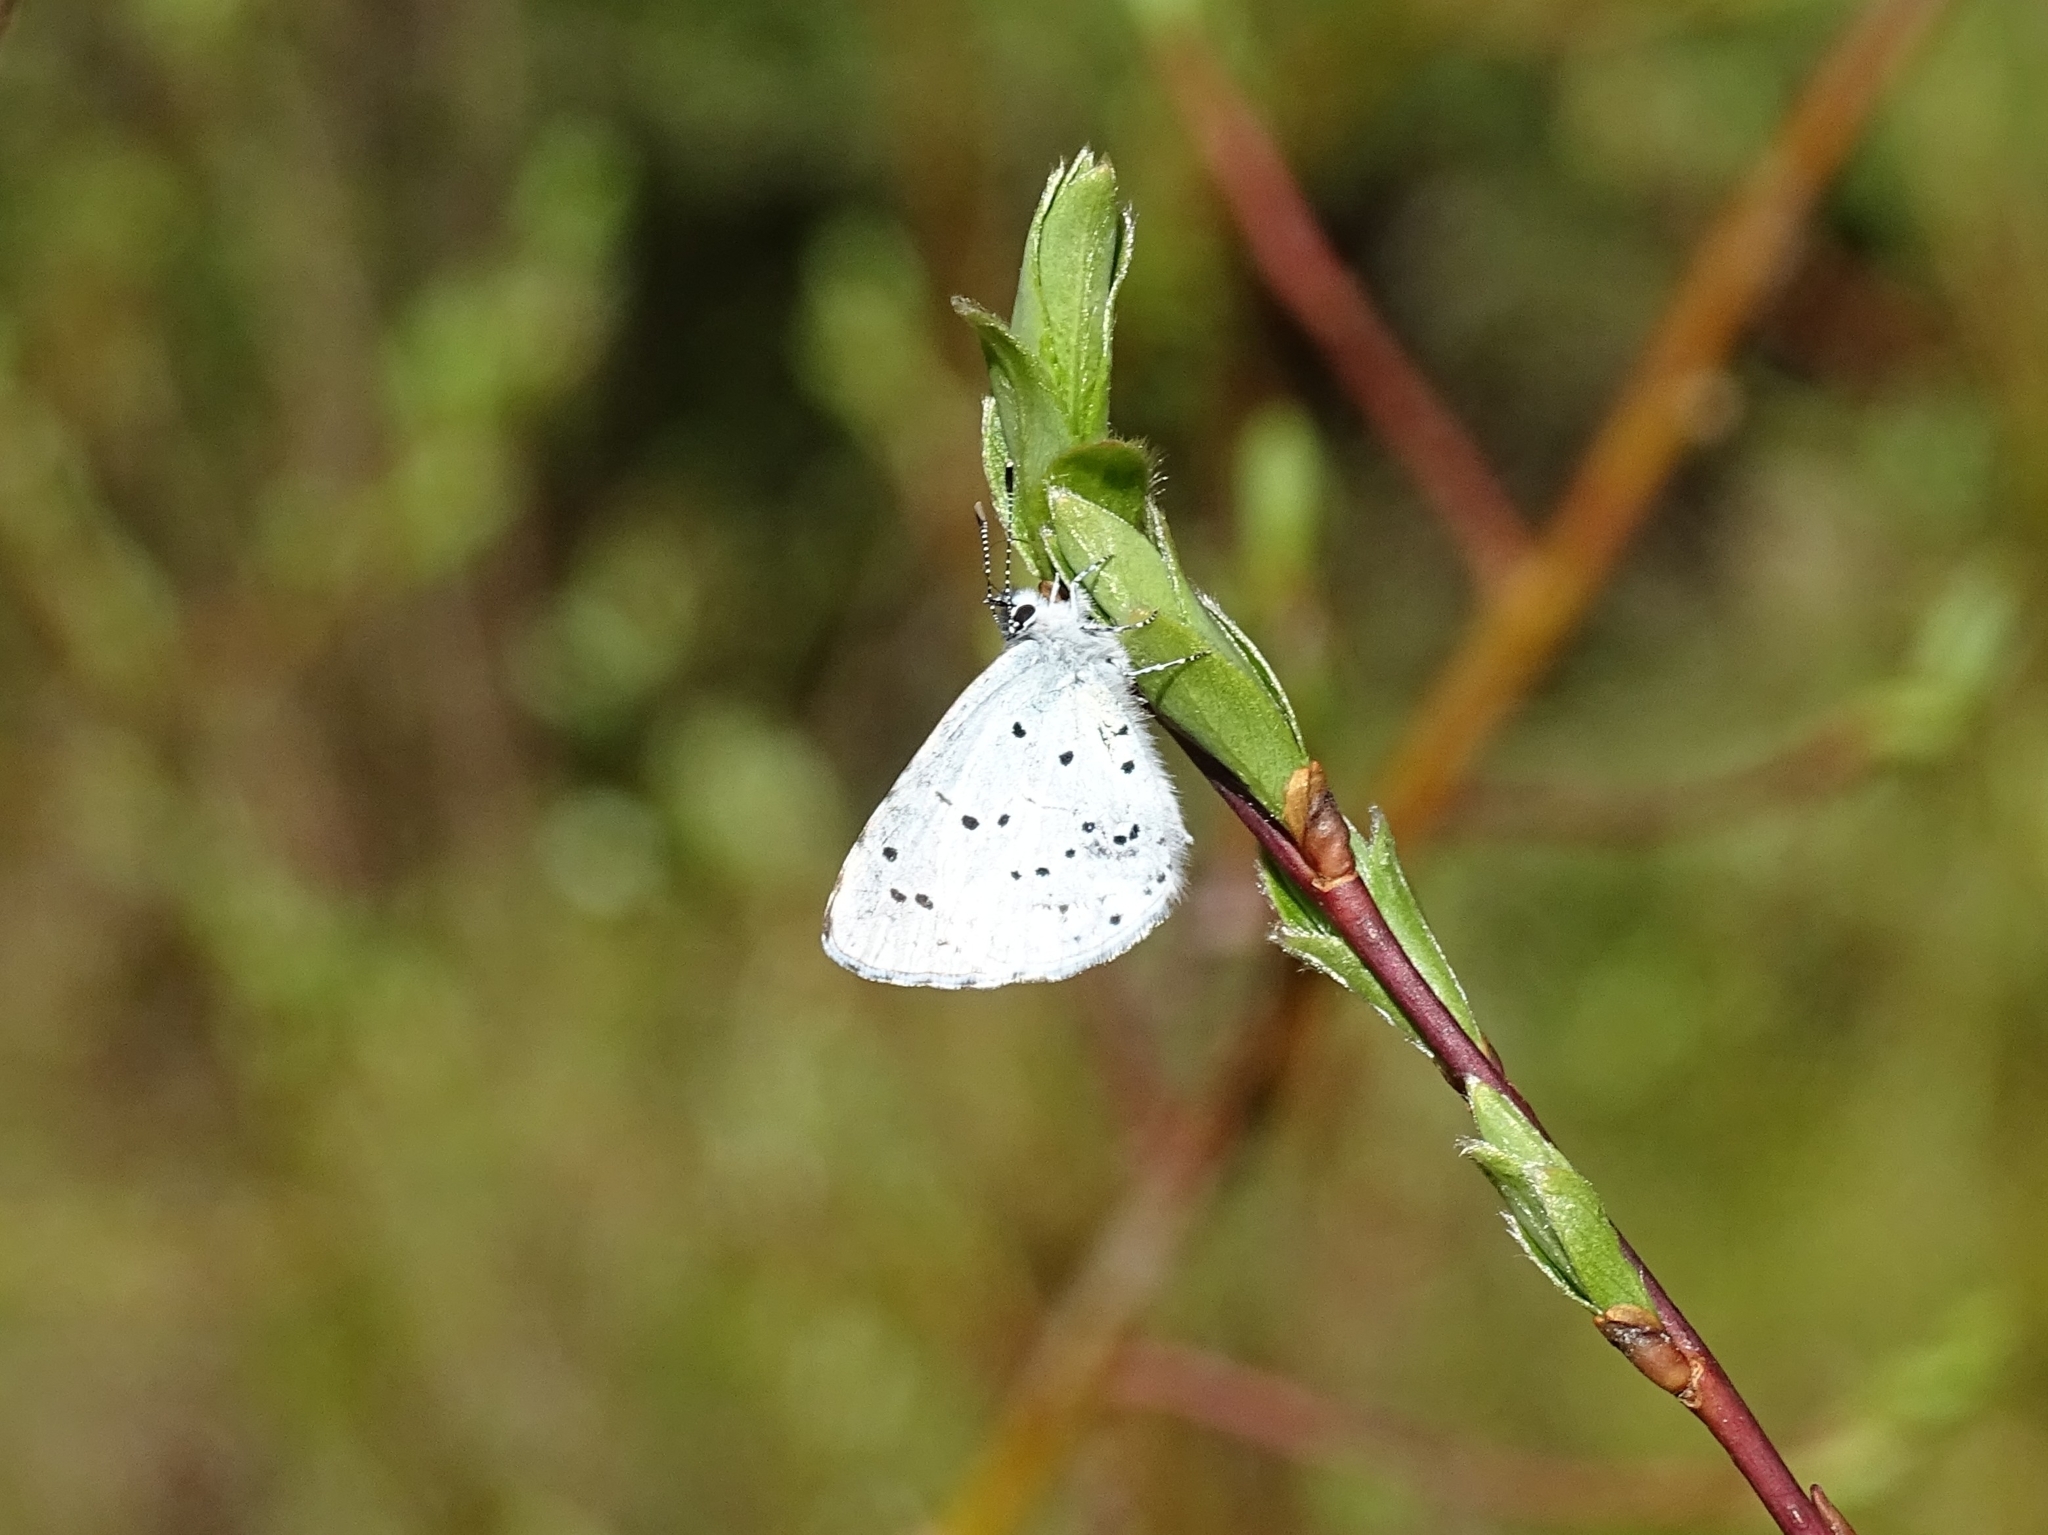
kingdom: Animalia
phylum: Arthropoda
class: Insecta
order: Lepidoptera
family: Lycaenidae
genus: Celastrina
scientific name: Celastrina argiolus
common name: Holly blue
